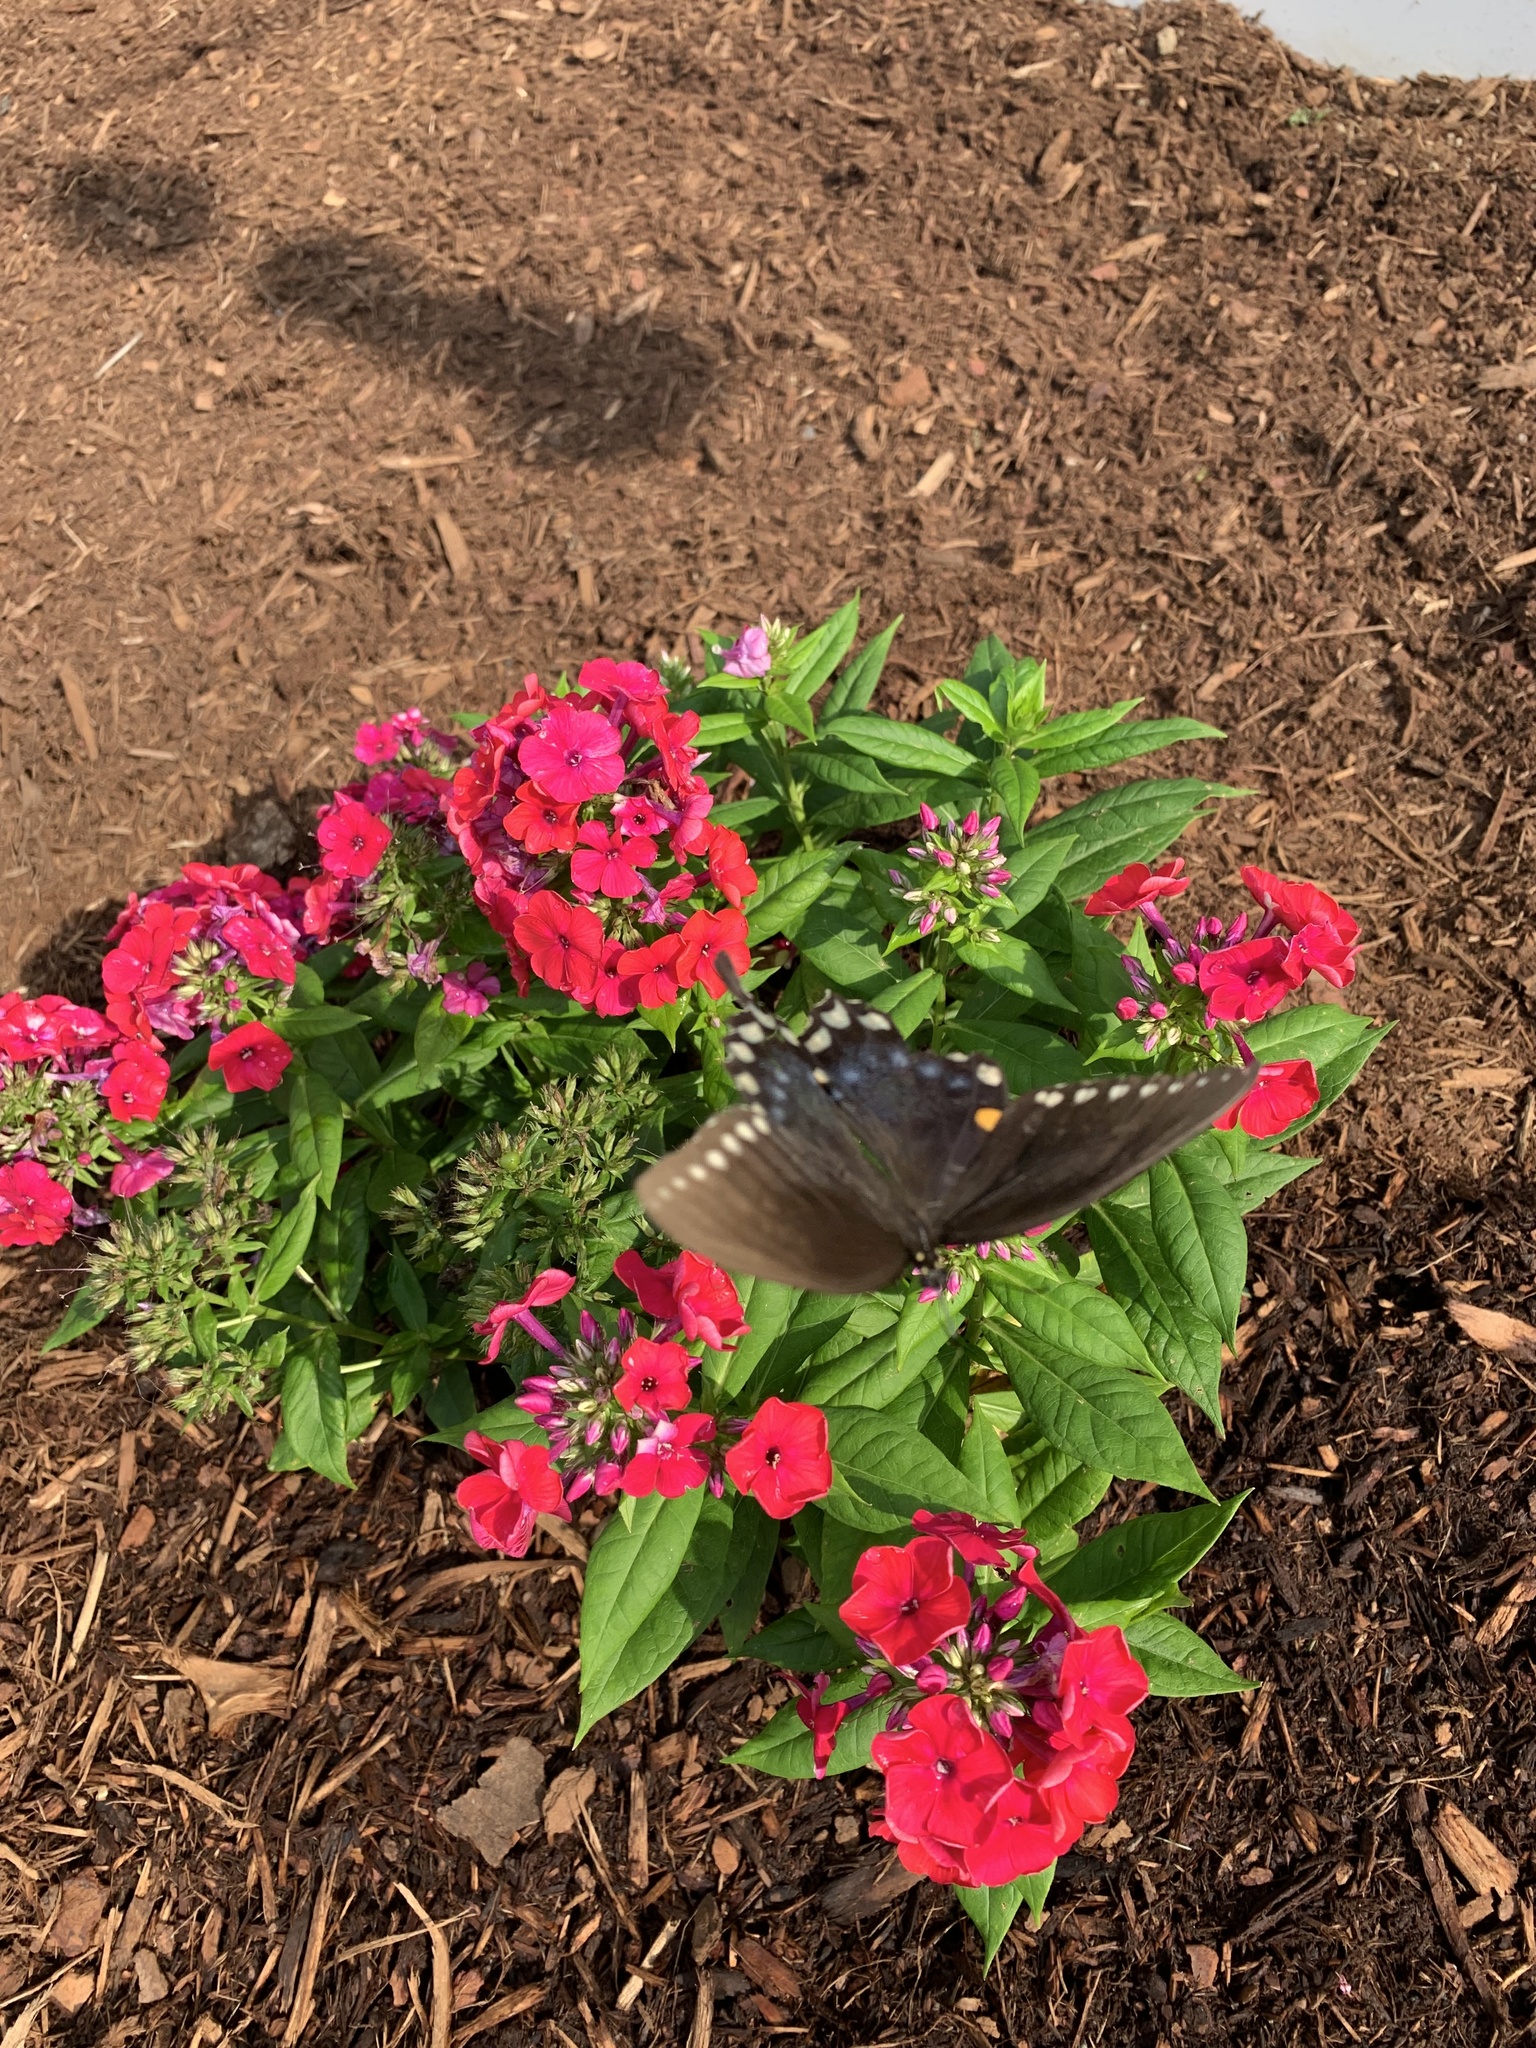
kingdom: Animalia
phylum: Arthropoda
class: Insecta
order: Lepidoptera
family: Papilionidae
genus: Papilio
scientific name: Papilio troilus
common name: Spicebush swallowtail
